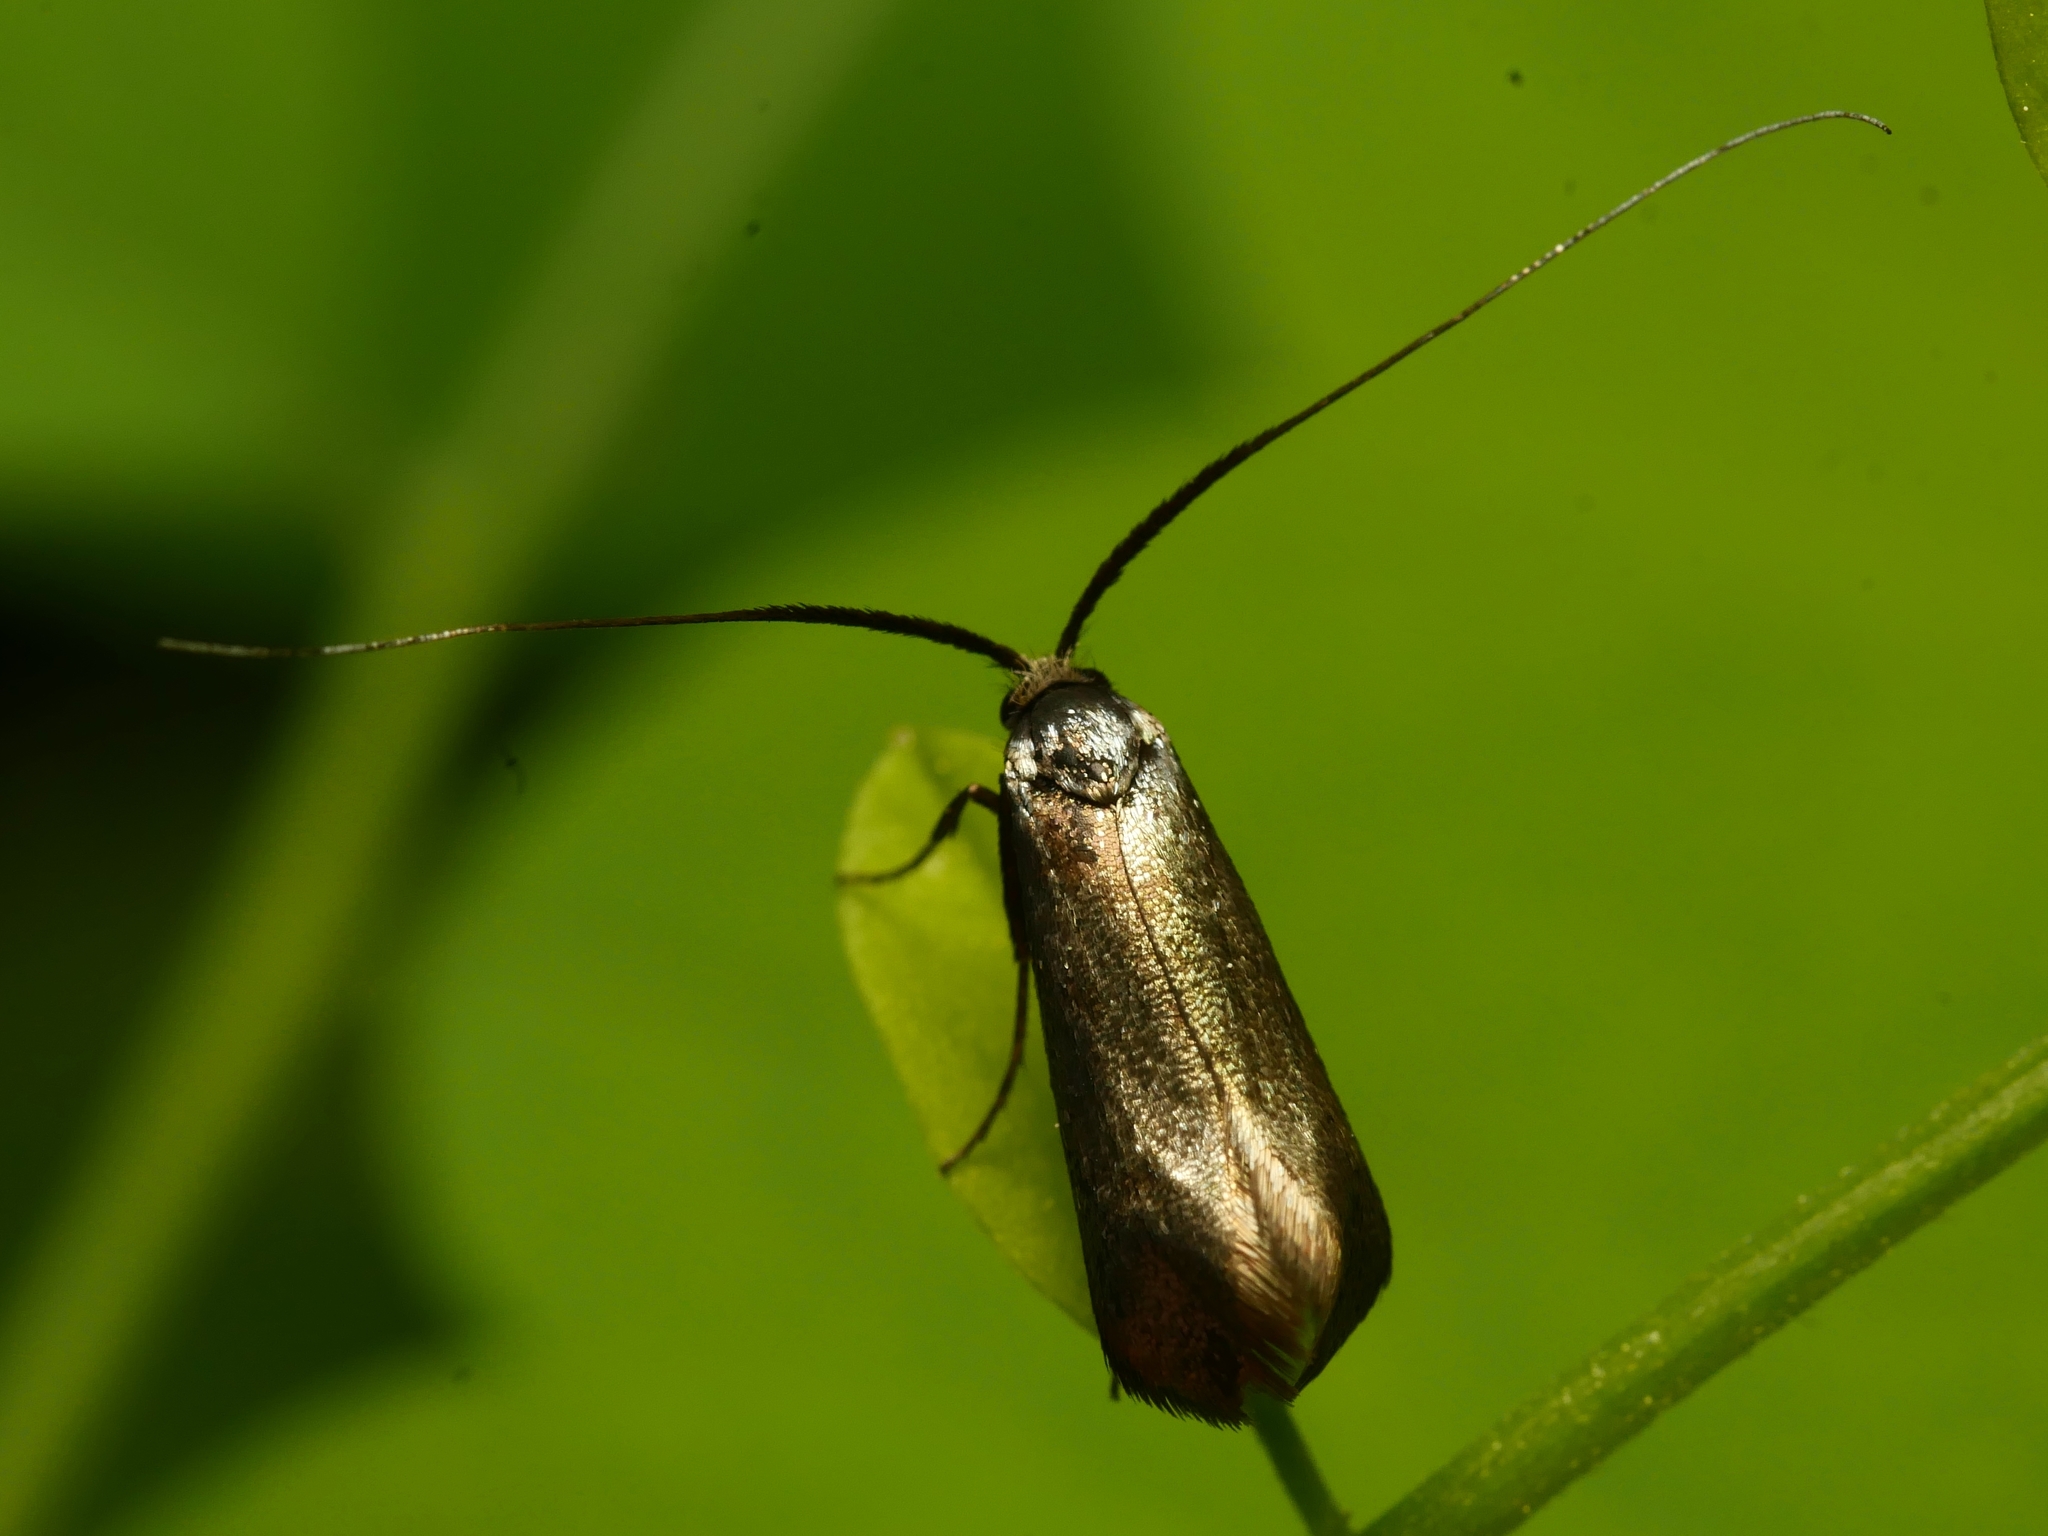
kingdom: Animalia
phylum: Arthropoda
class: Insecta
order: Lepidoptera
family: Adelidae
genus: Adela
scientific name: Adela viridella
